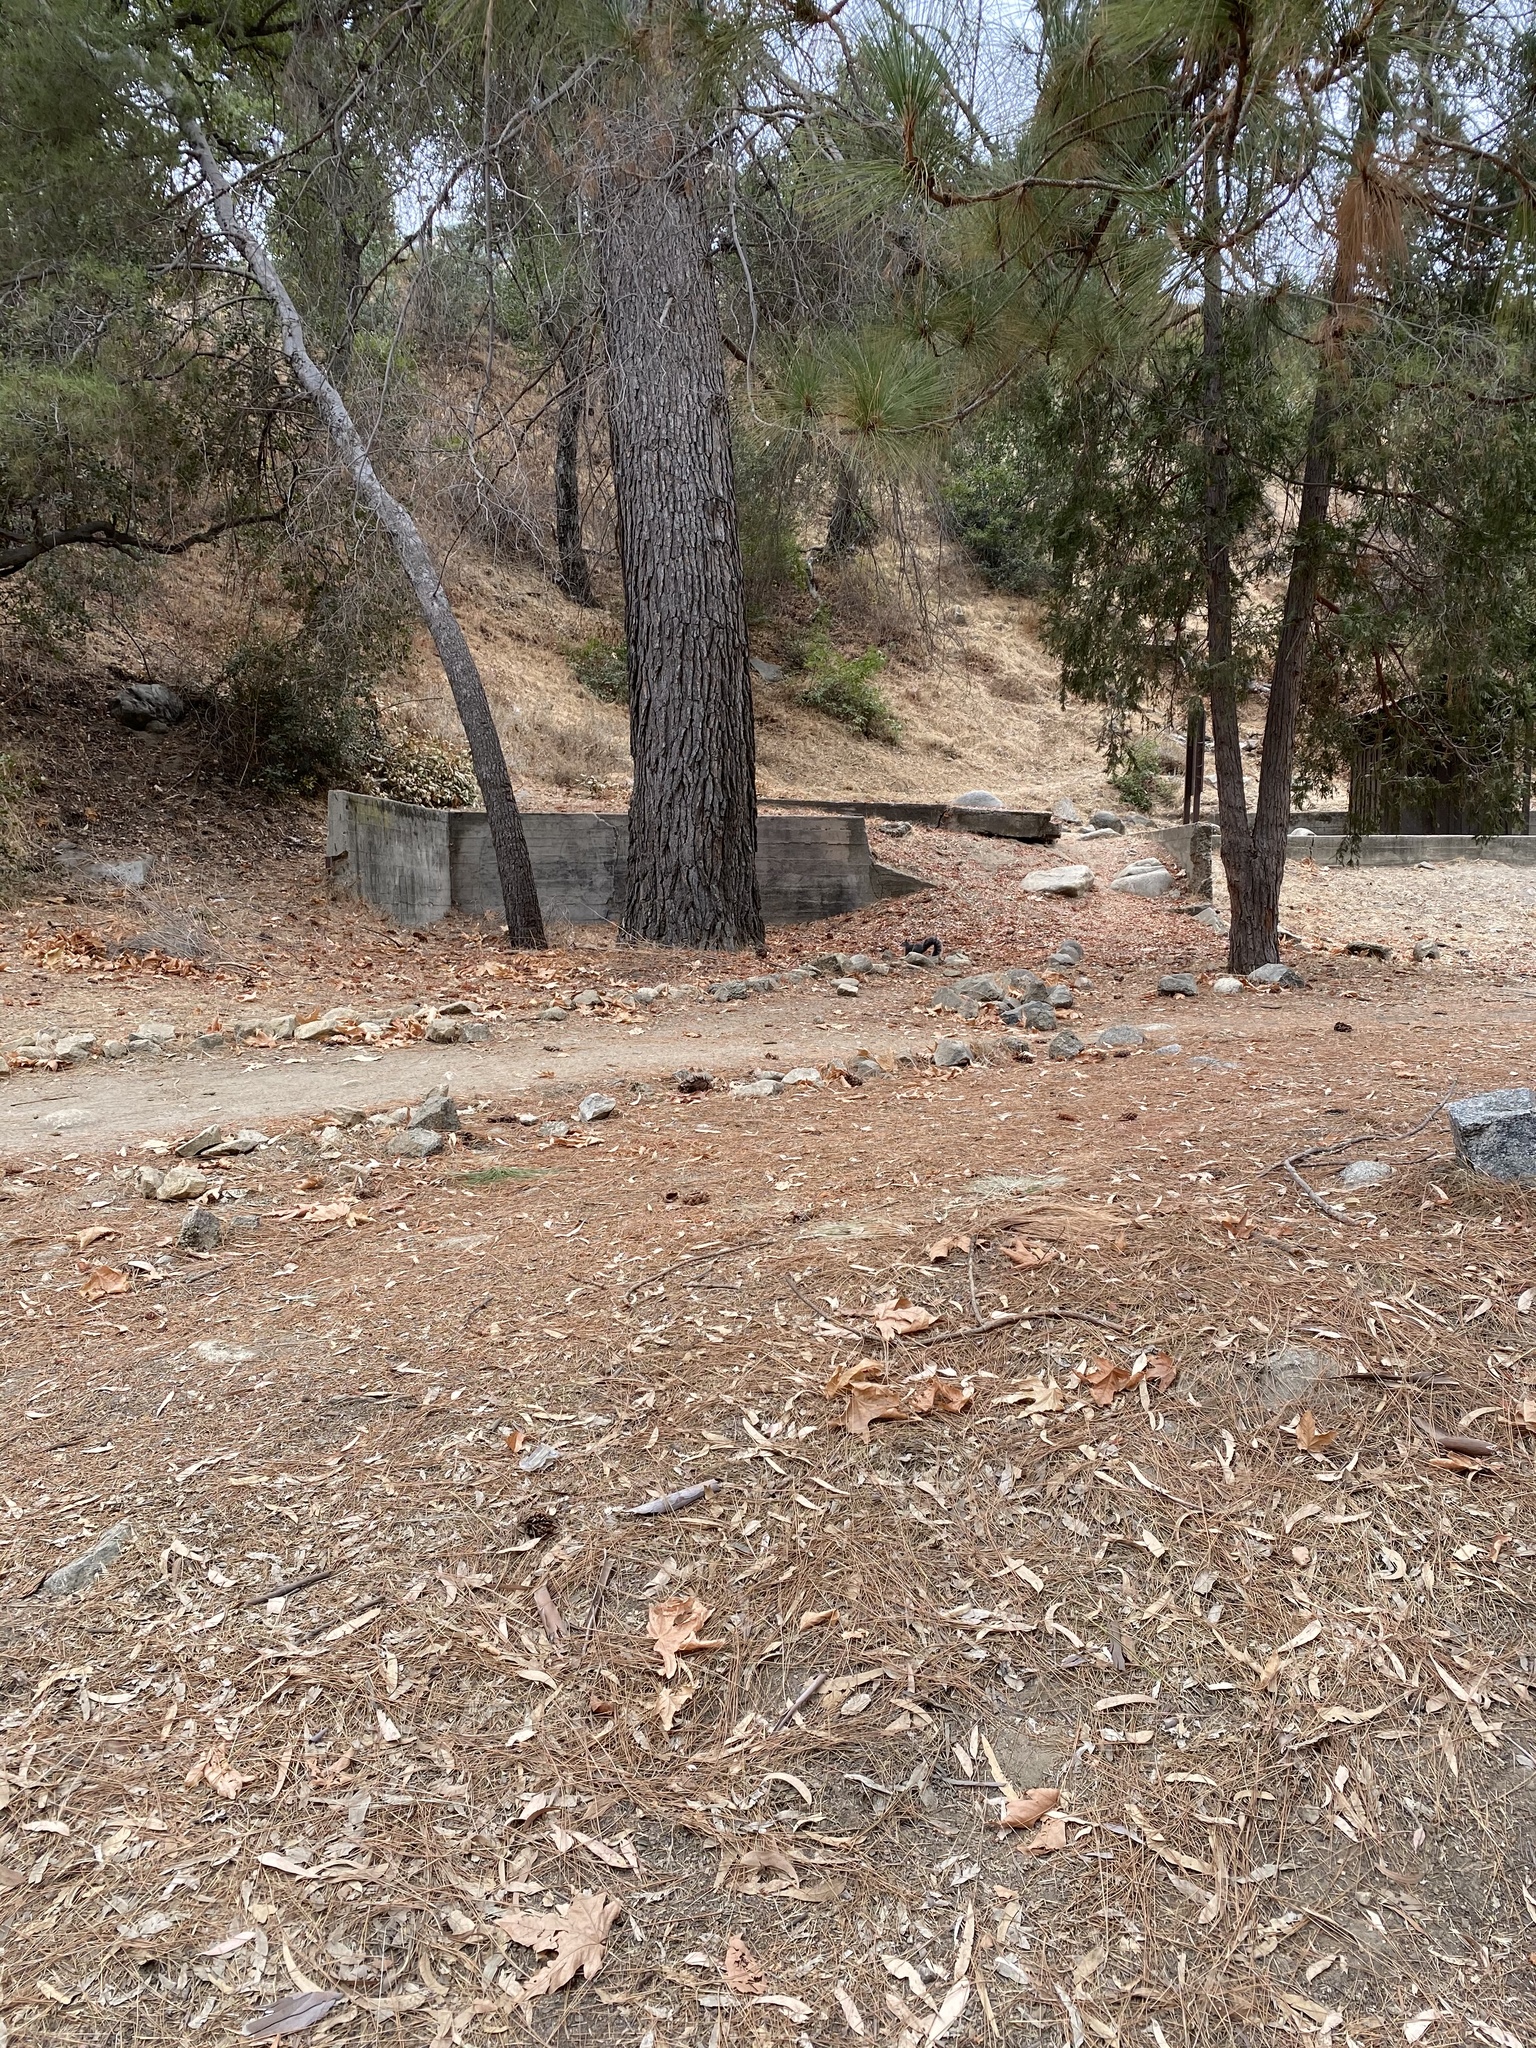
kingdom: Animalia
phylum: Chordata
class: Mammalia
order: Rodentia
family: Sciuridae
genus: Sciurus
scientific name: Sciurus griseus
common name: Western gray squirrel
